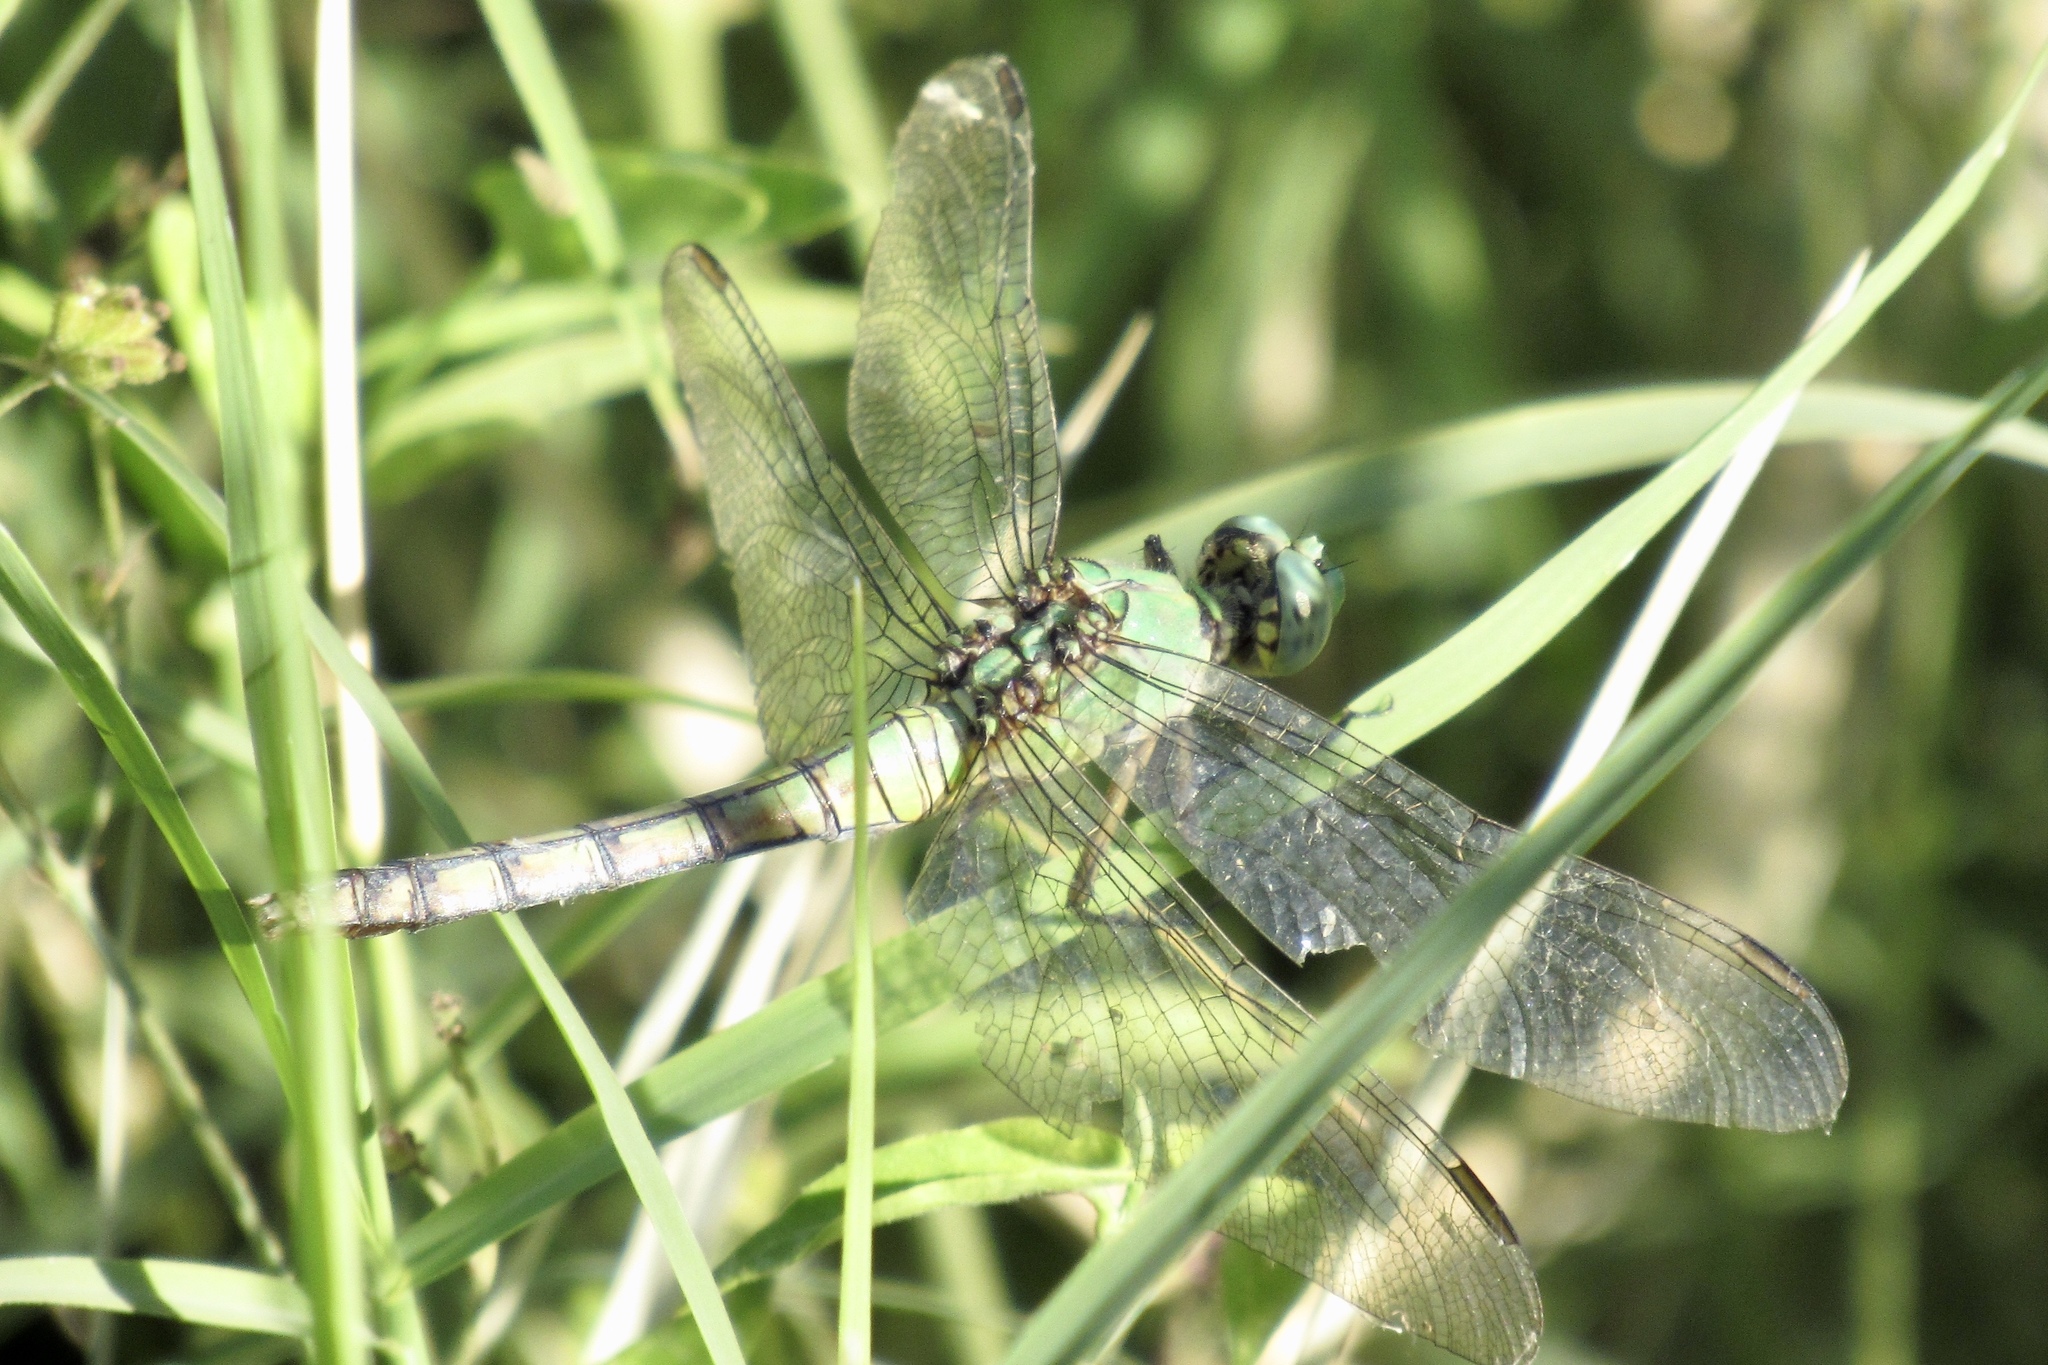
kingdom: Animalia
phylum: Arthropoda
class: Insecta
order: Odonata
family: Libellulidae
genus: Erythemis
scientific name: Erythemis collocata
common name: Western pondhawk
